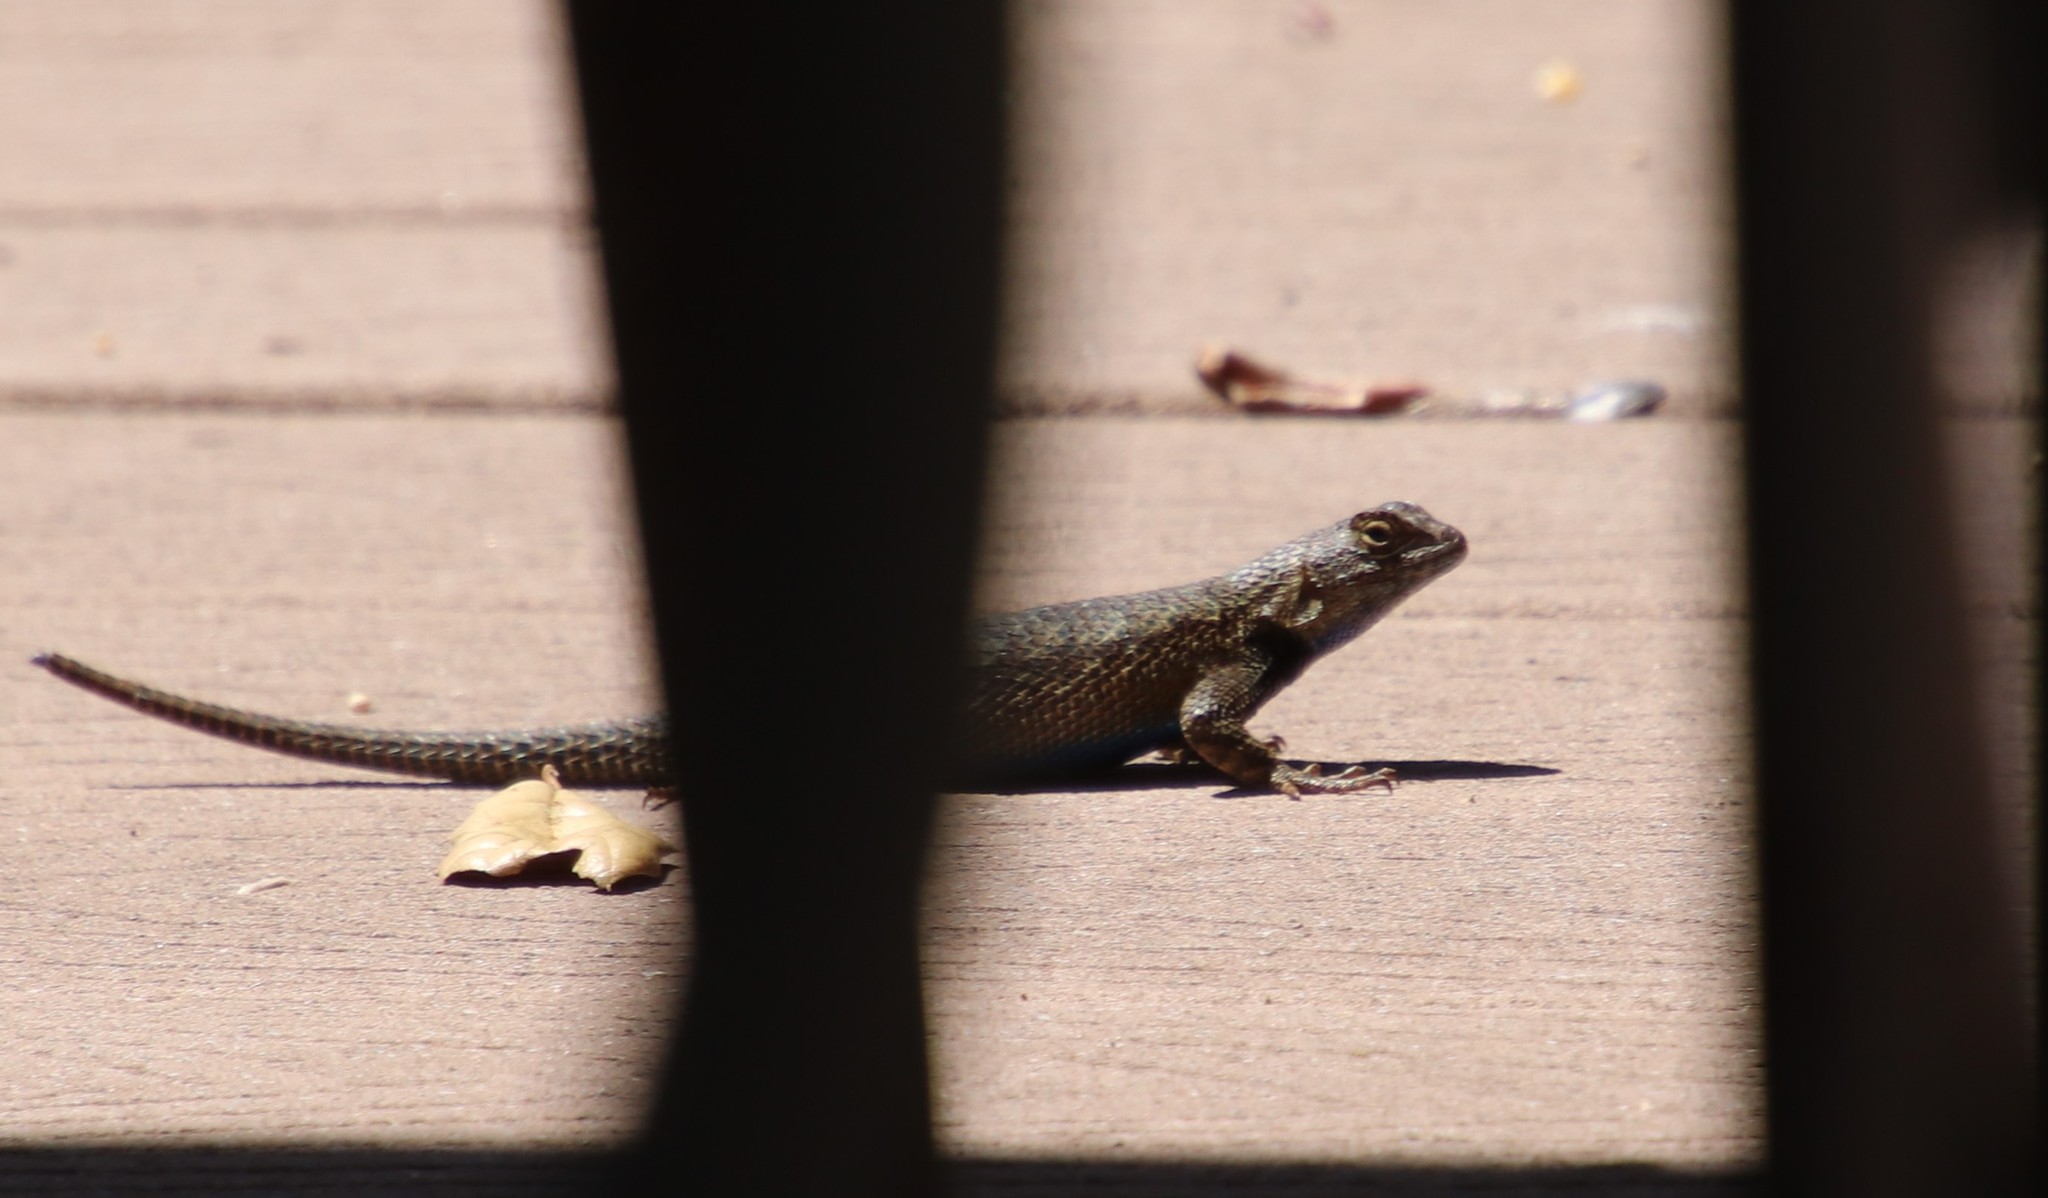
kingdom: Animalia
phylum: Chordata
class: Squamata
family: Phrynosomatidae
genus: Sceloporus
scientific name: Sceloporus occidentalis
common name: Western fence lizard
